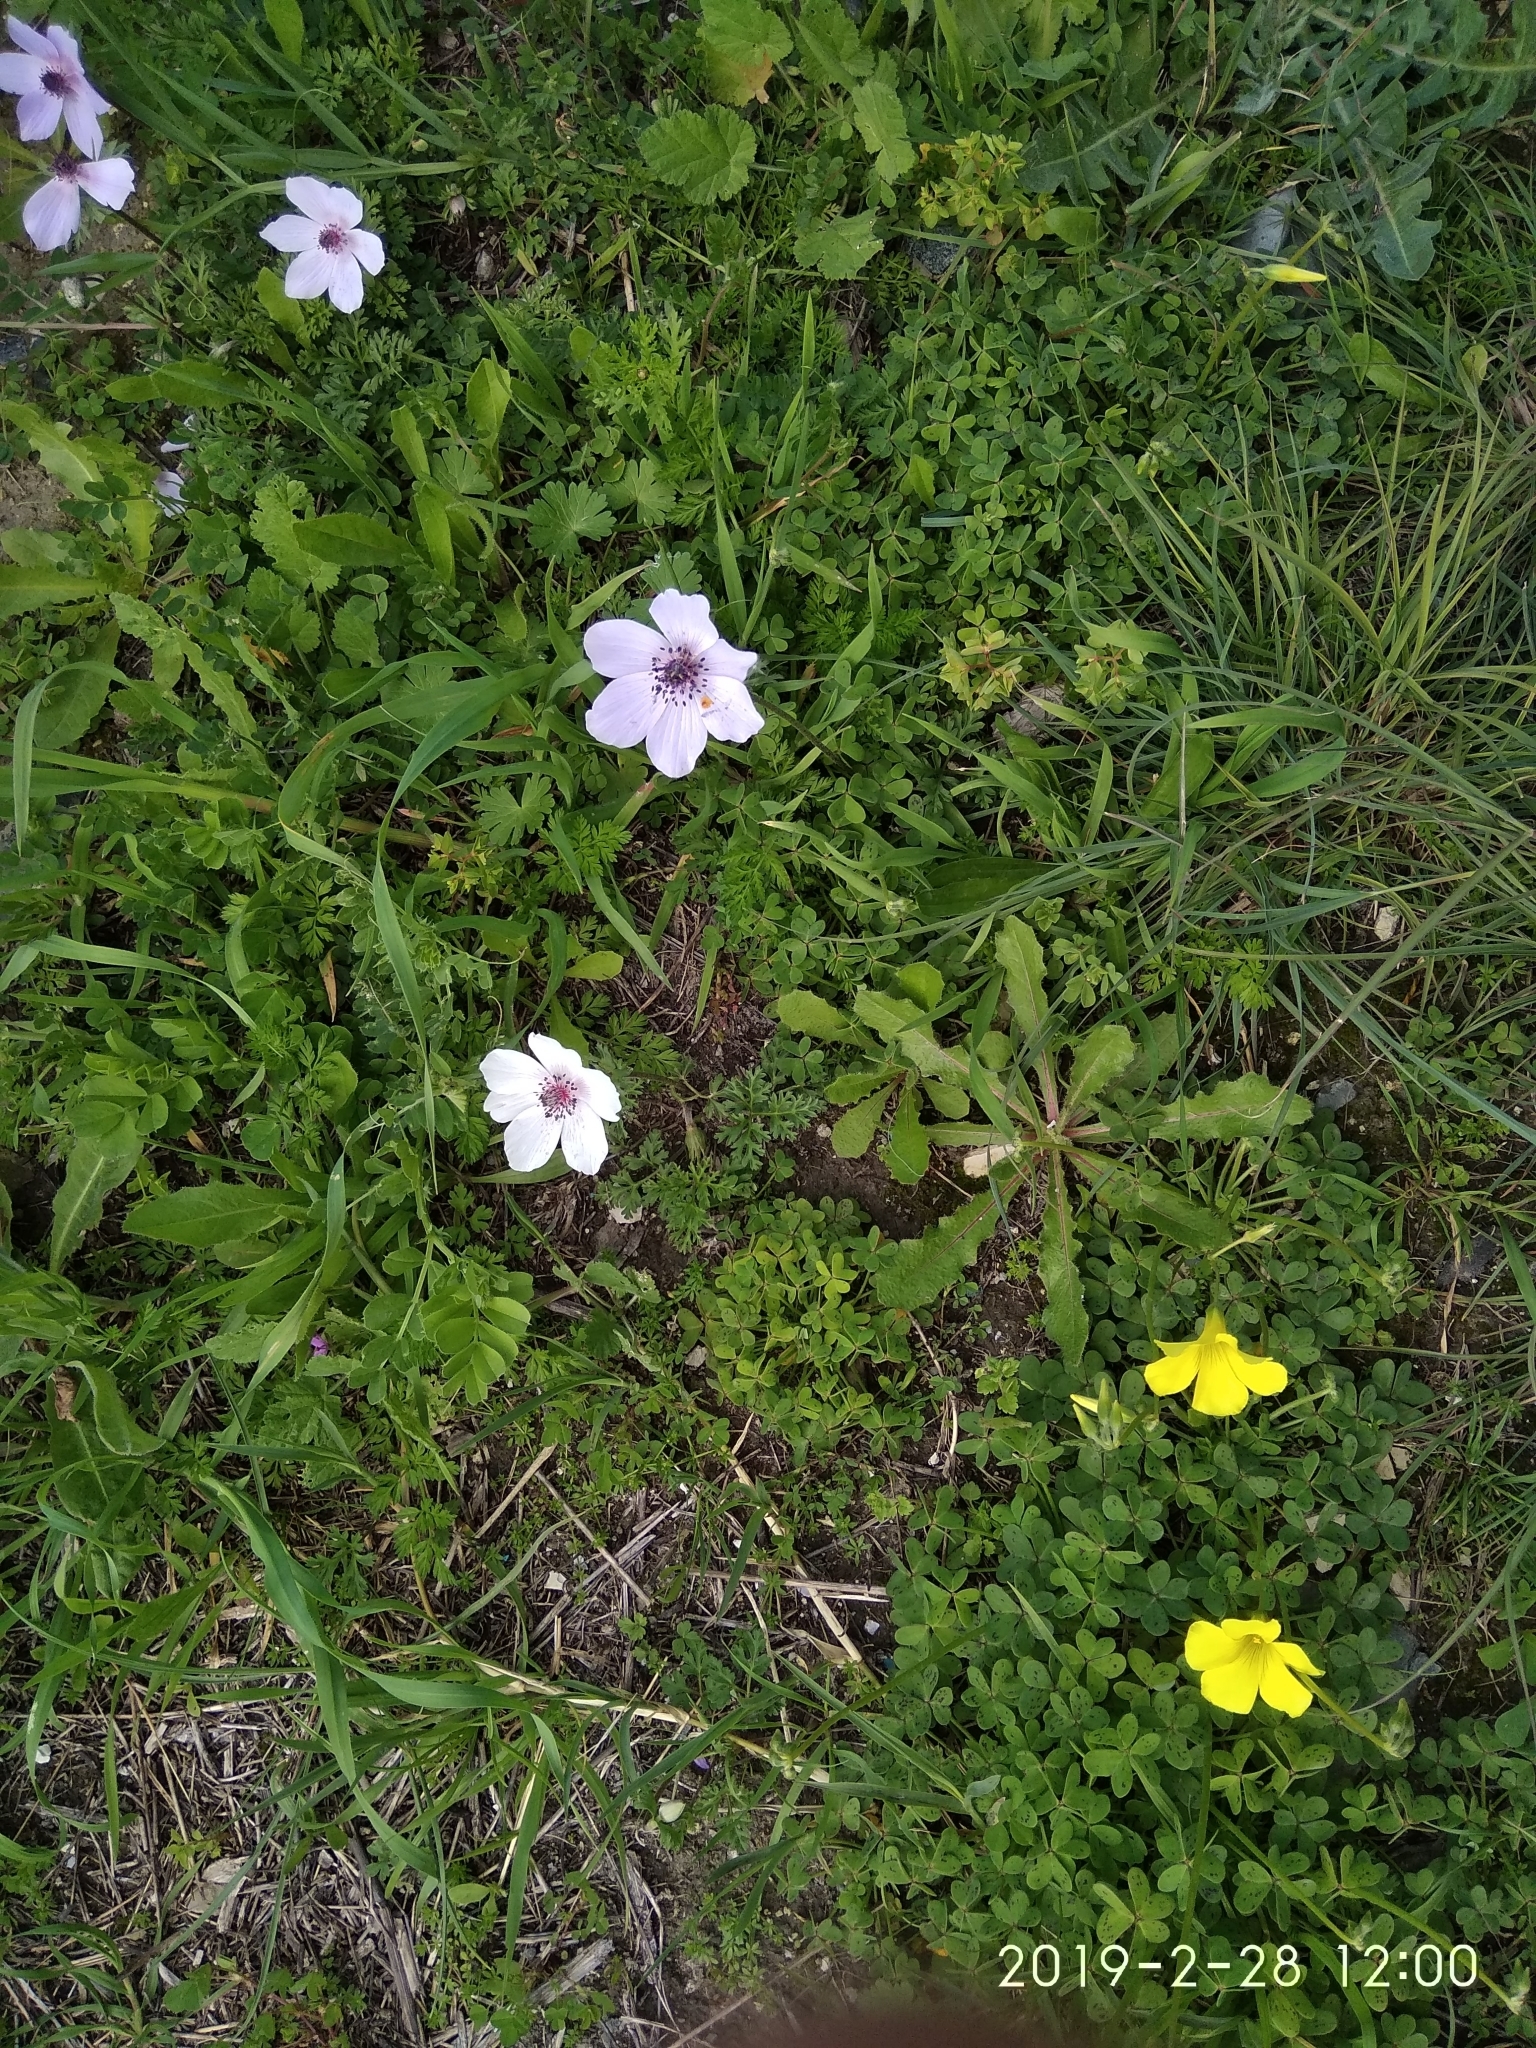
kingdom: Plantae
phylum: Tracheophyta
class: Magnoliopsida
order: Ranunculales
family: Ranunculaceae
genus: Anemone
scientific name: Anemone coronaria
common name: Poppy anemone
